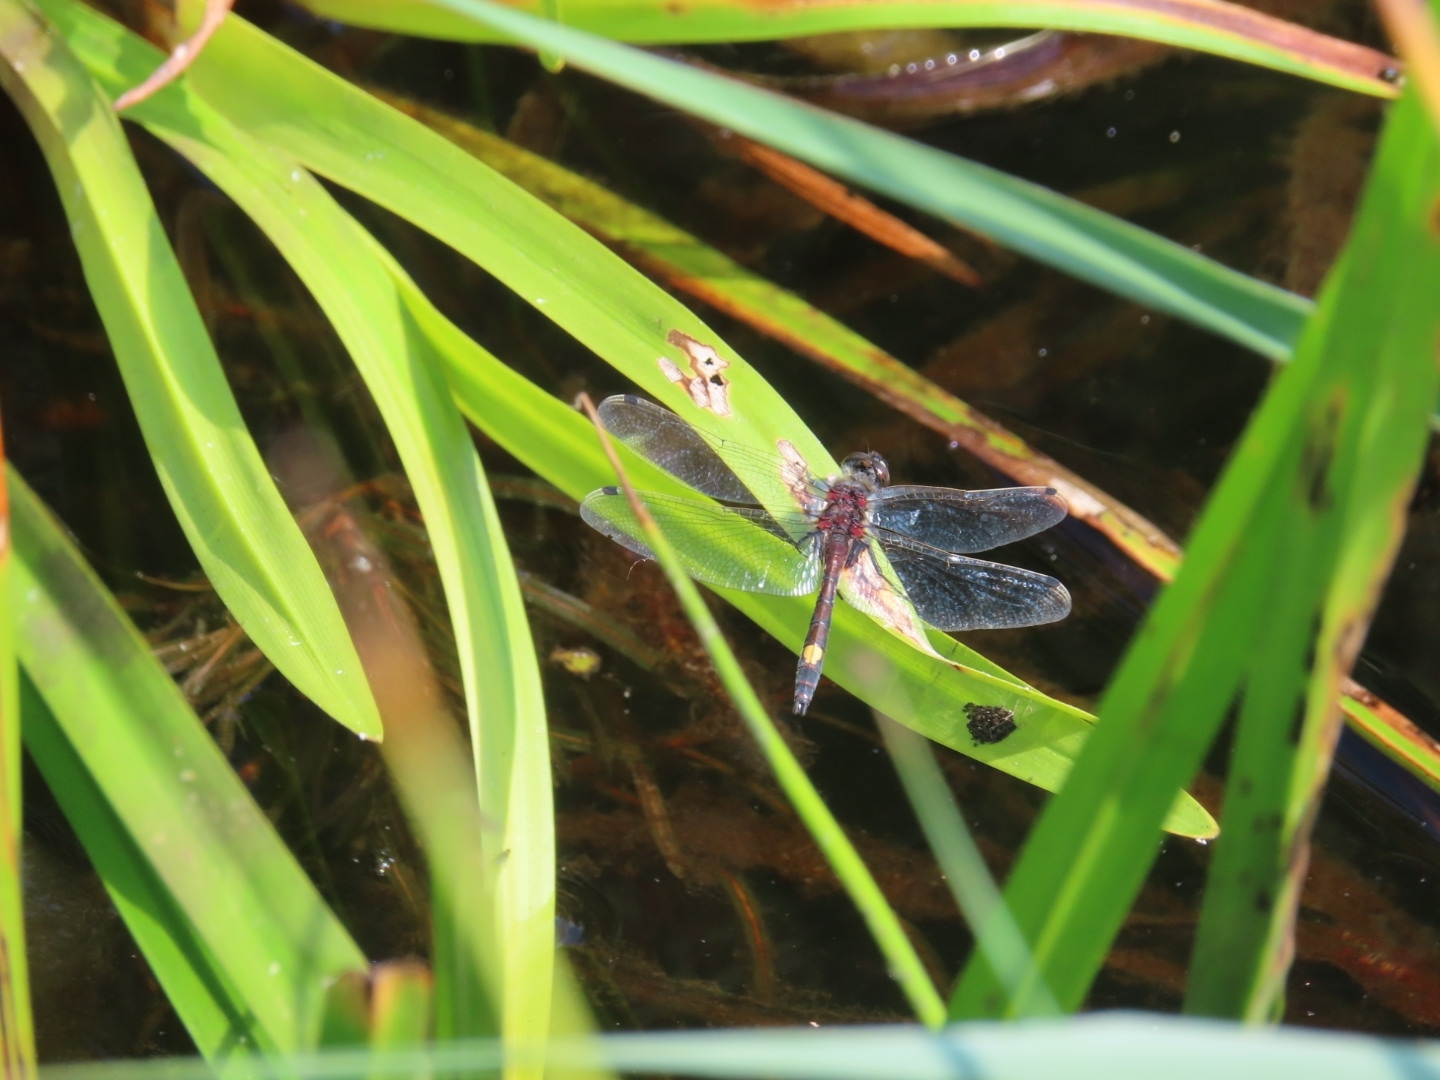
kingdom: Animalia
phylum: Arthropoda
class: Insecta
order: Odonata
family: Libellulidae
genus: Leucorrhinia
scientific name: Leucorrhinia pectoralis
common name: Yellow-spotted whiteface
